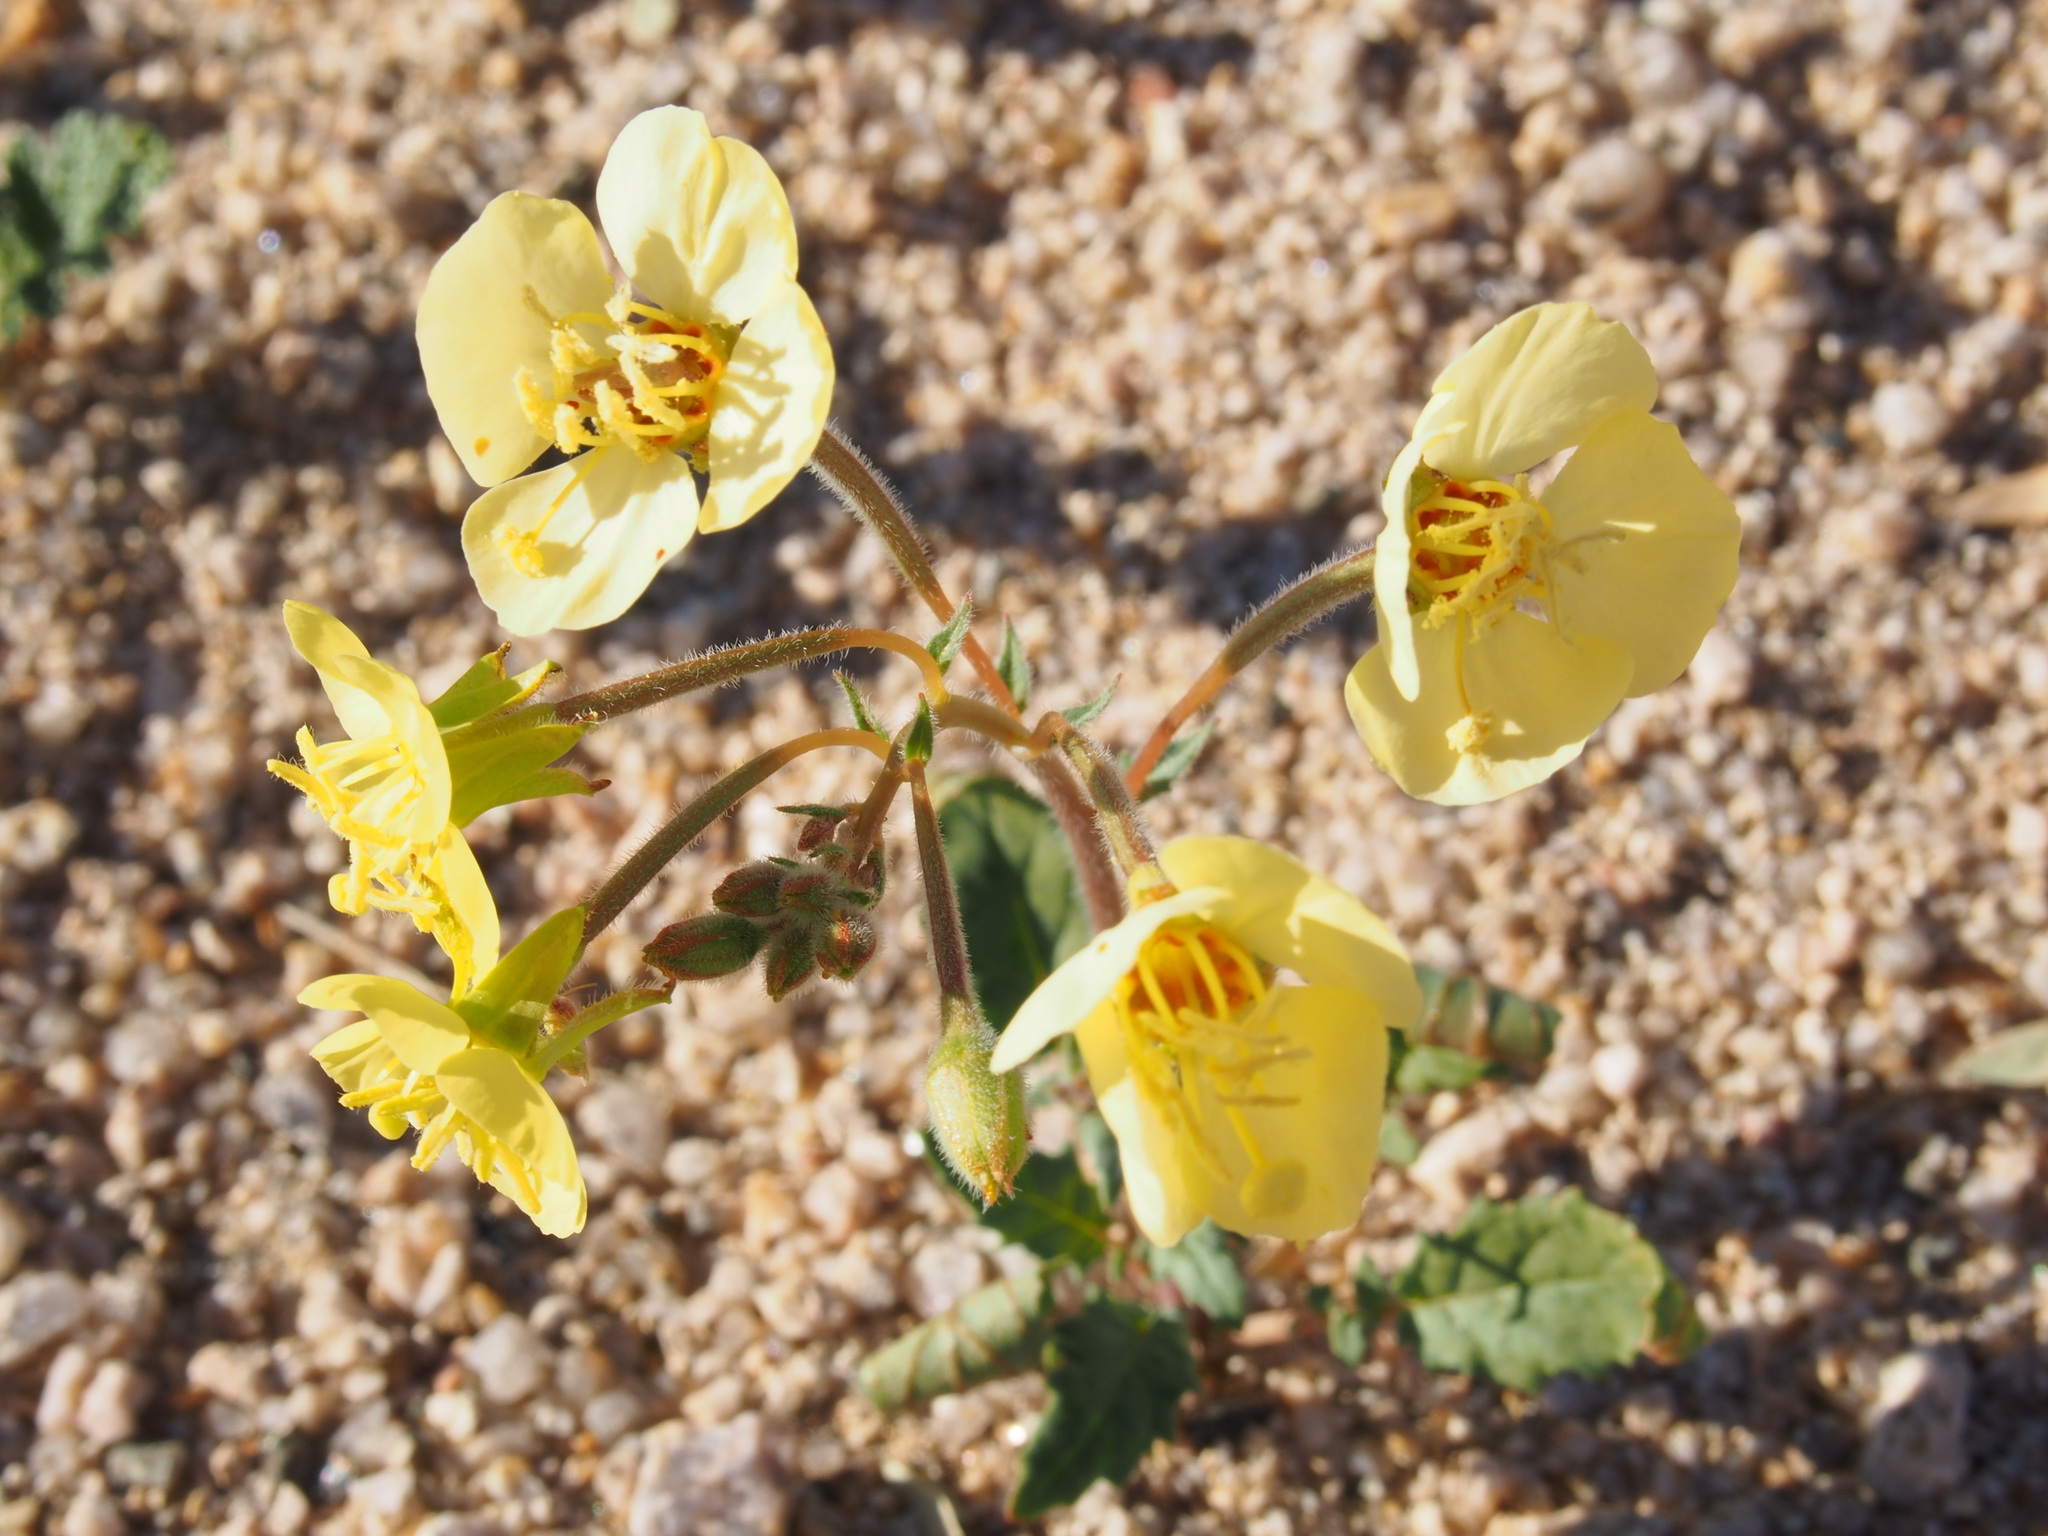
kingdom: Plantae
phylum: Tracheophyta
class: Magnoliopsida
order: Myrtales
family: Onagraceae
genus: Chylismia
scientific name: Chylismia claviformis
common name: Browneyes
